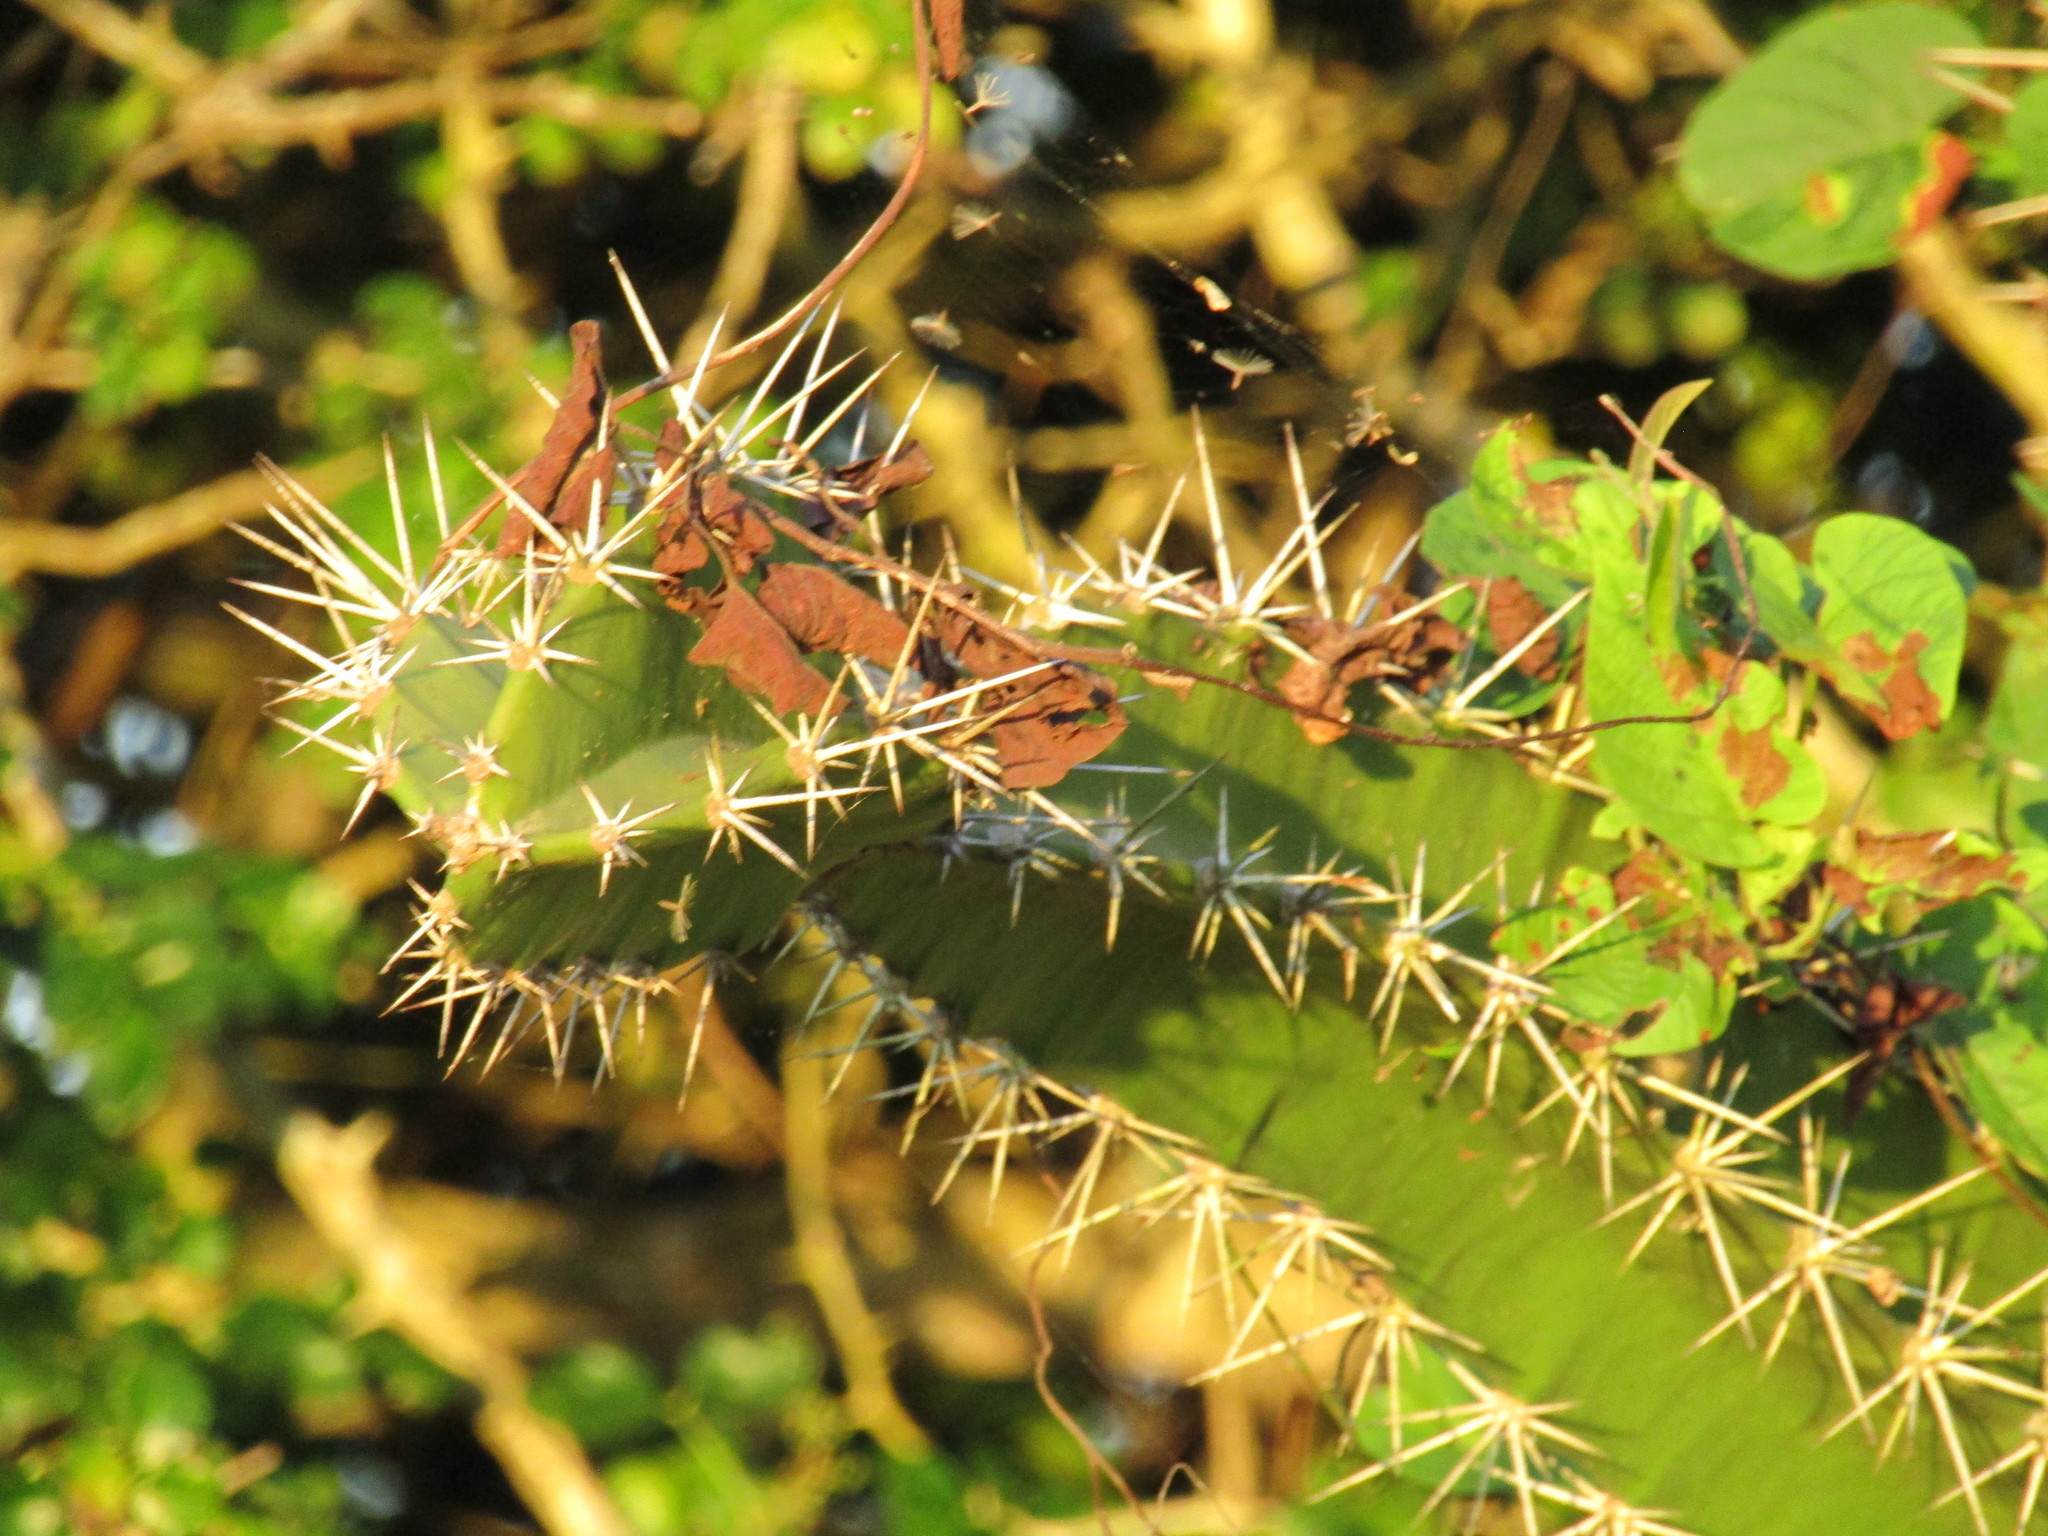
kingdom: Plantae
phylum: Tracheophyta
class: Magnoliopsida
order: Caryophyllales
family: Cactaceae
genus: Acanthocereus
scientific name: Acanthocereus tetragonus
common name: Triangle cactus
